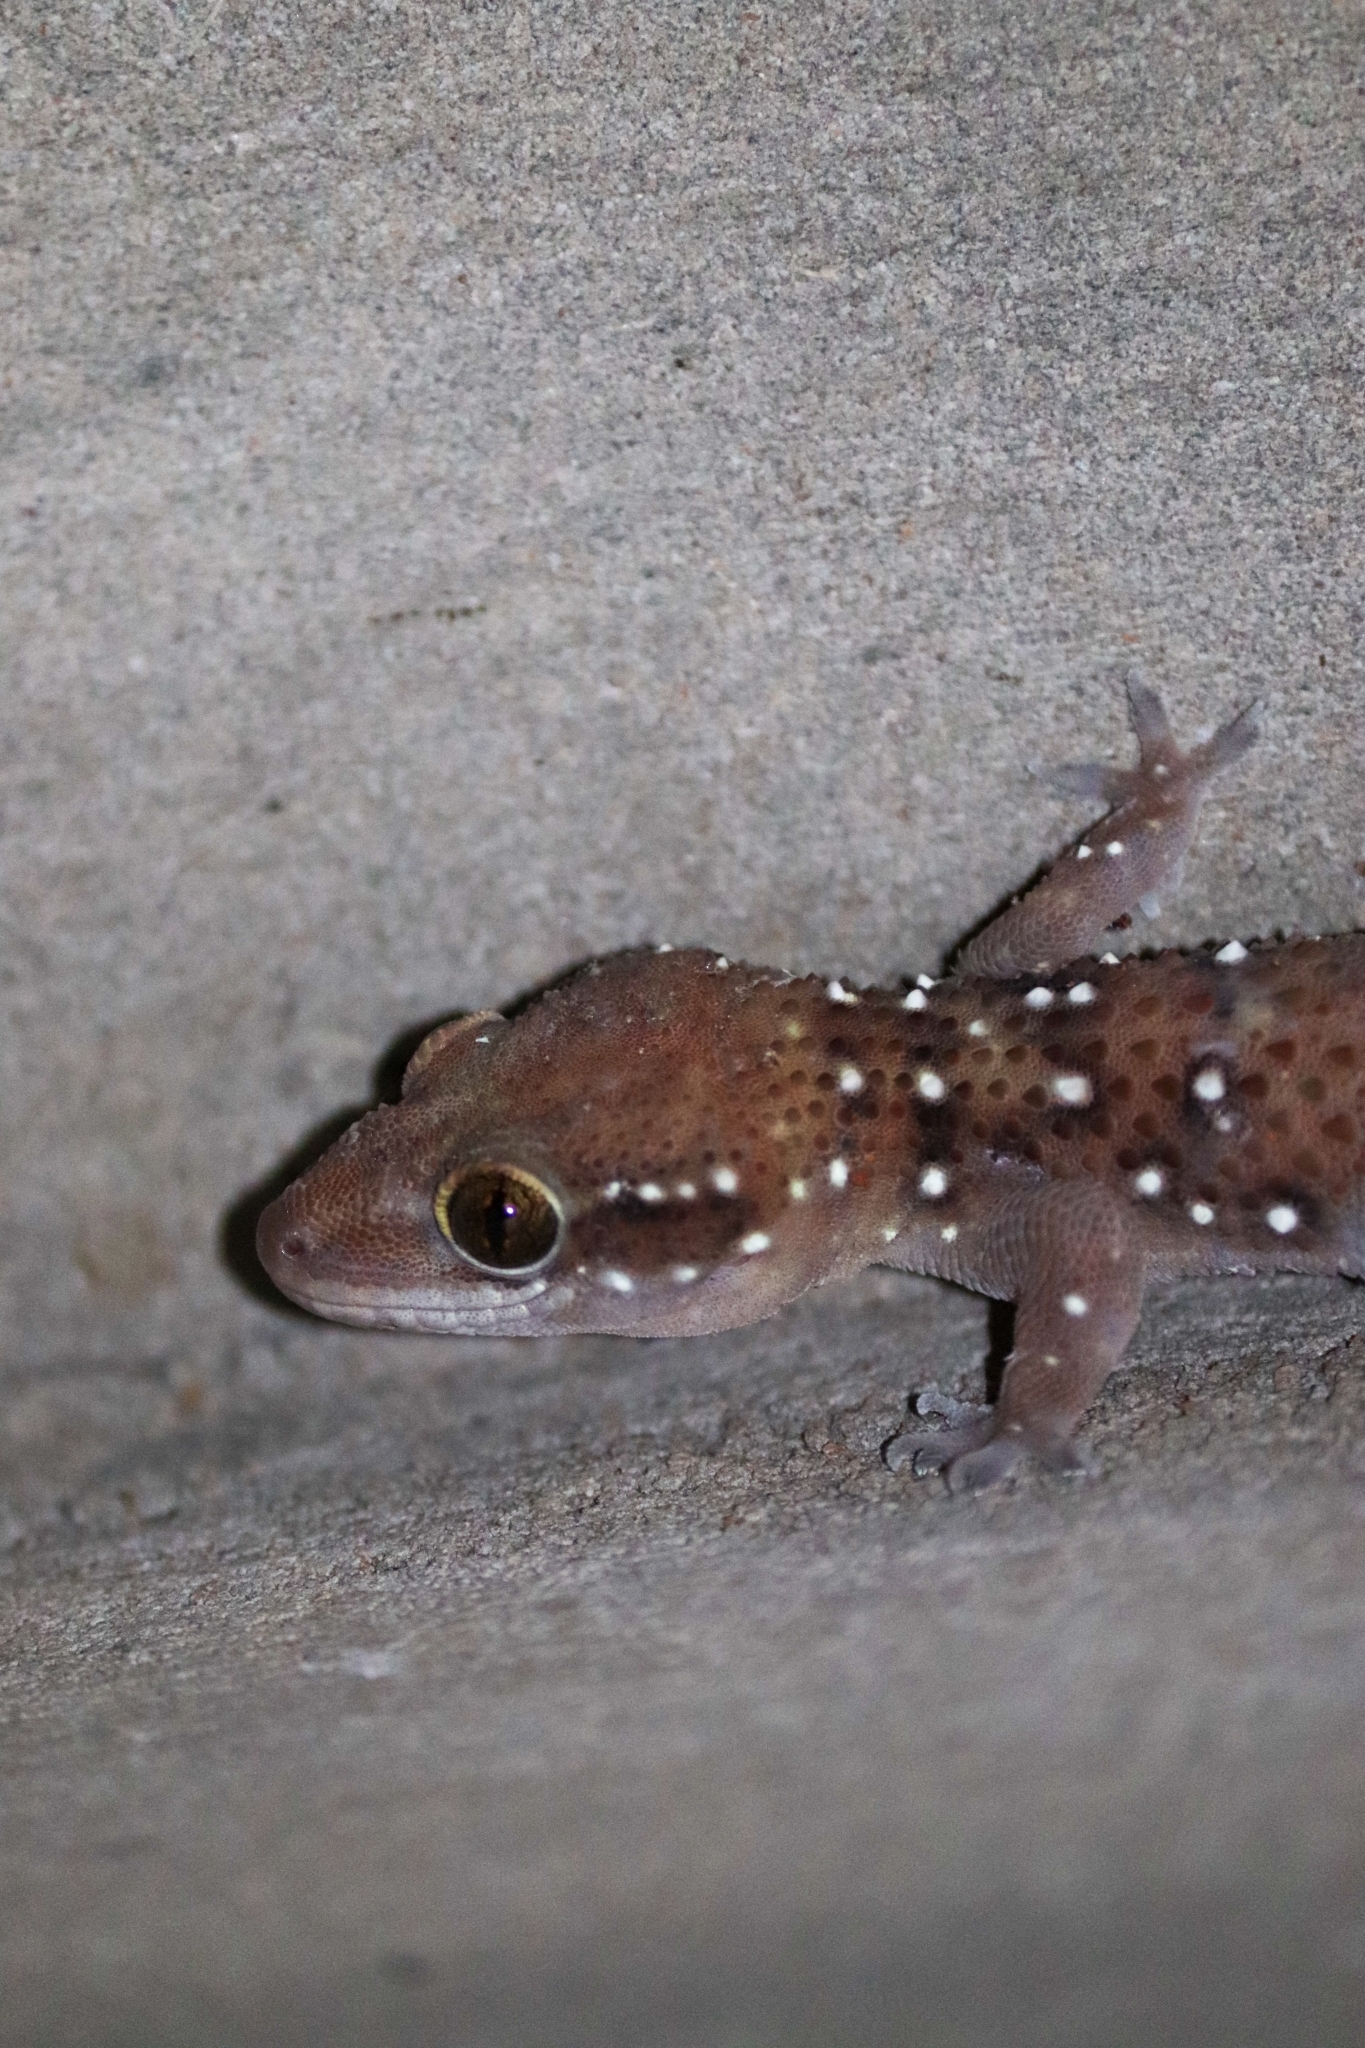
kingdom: Animalia
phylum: Chordata
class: Squamata
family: Gekkonidae
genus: Hemidactylus
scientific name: Hemidactylus triedrus
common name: Blotched house gecko
